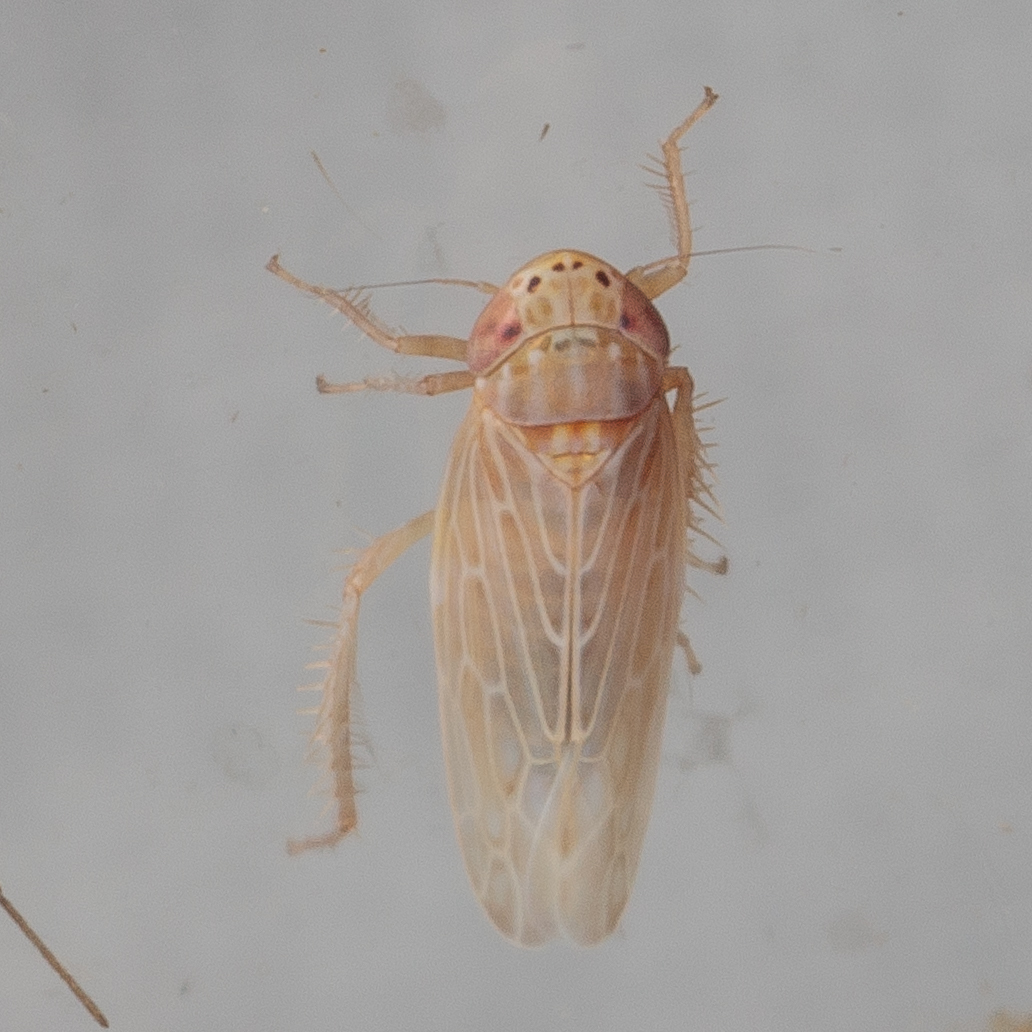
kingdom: Animalia
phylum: Arthropoda
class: Insecta
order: Hemiptera
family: Cicadellidae
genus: Graminella
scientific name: Graminella sonora
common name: Lesser lawn leafhopper
